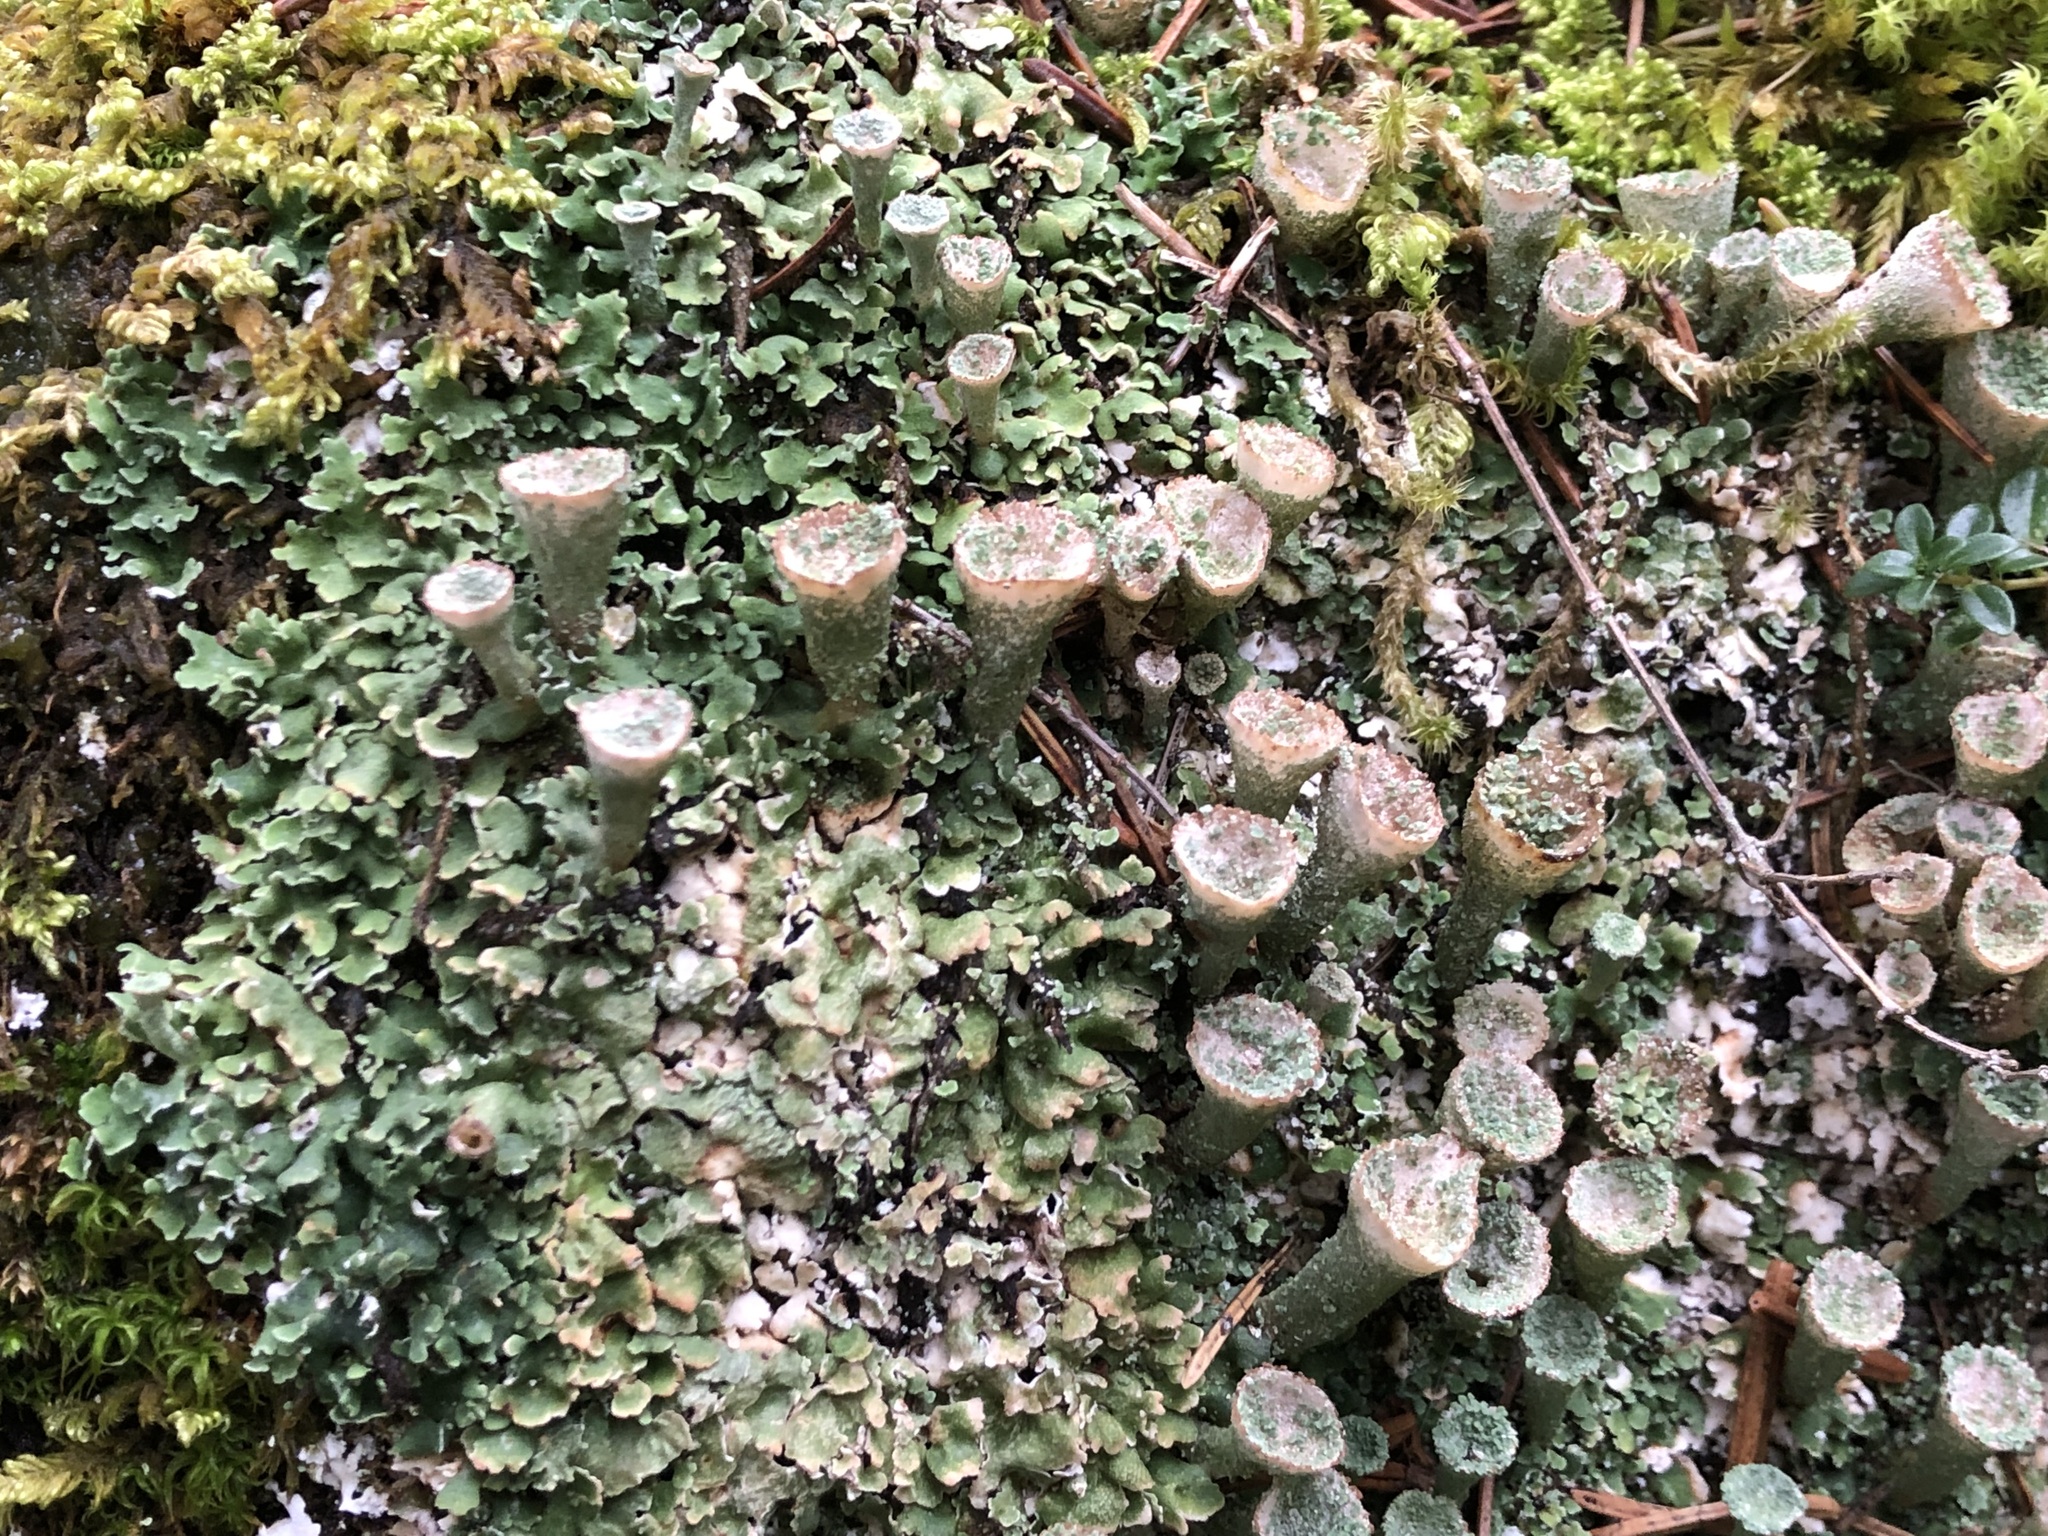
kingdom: Fungi
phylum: Ascomycota
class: Lecanoromycetes
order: Lecanorales
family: Cladoniaceae
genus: Cladonia
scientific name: Cladonia pocillum
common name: Rosette pixie-cup lichen
